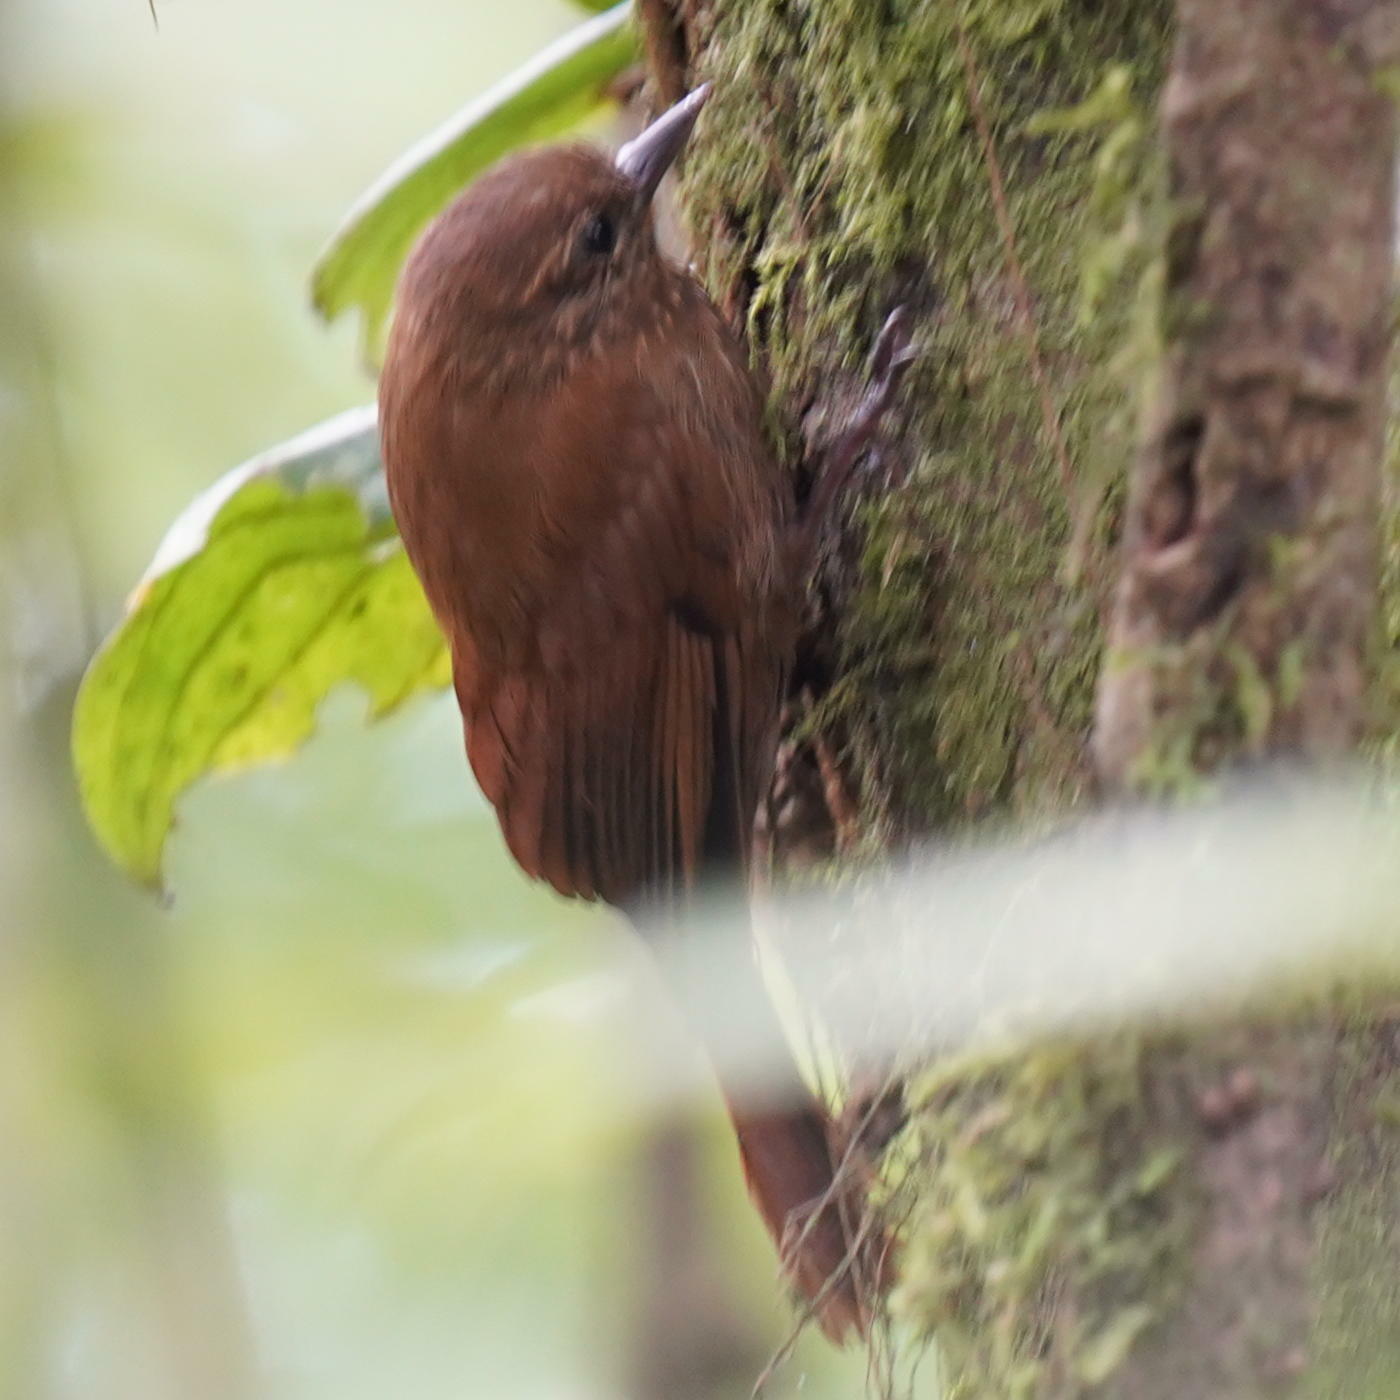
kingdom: Animalia
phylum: Chordata
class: Aves
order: Passeriformes
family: Furnariidae
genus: Glyphorynchus
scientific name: Glyphorynchus spirurus
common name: Wedge-billed woodcreeper
